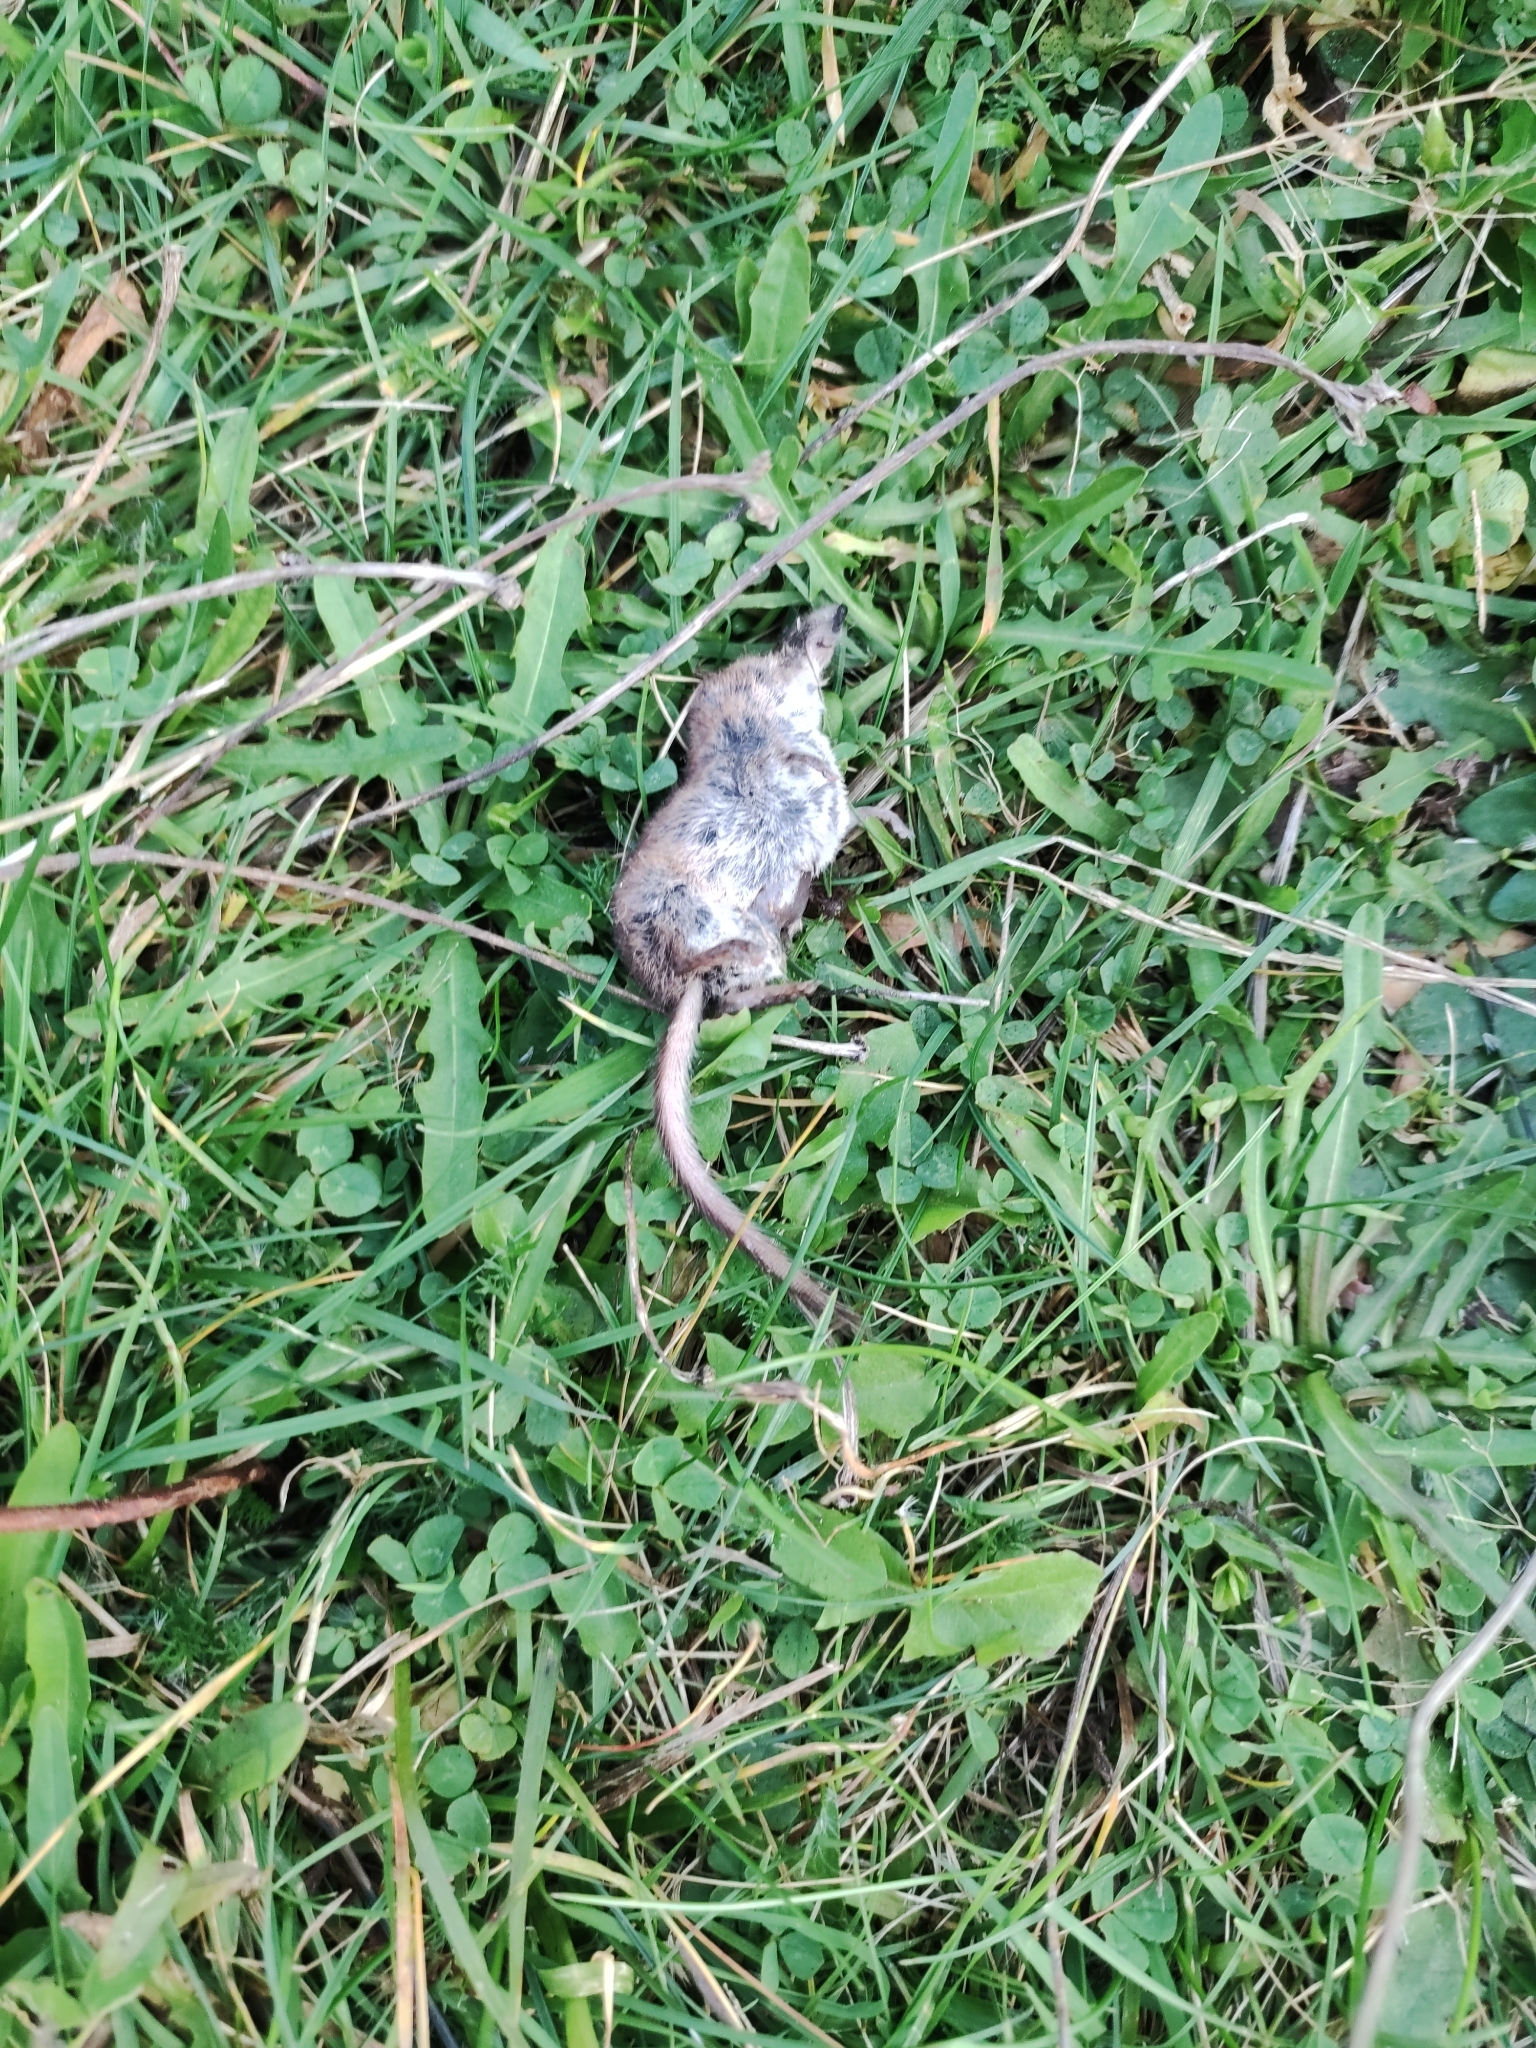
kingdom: Animalia
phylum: Chordata
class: Mammalia
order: Soricomorpha
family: Soricidae
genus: Sorex
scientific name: Sorex minutus
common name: Eurasian pygmy shrew
